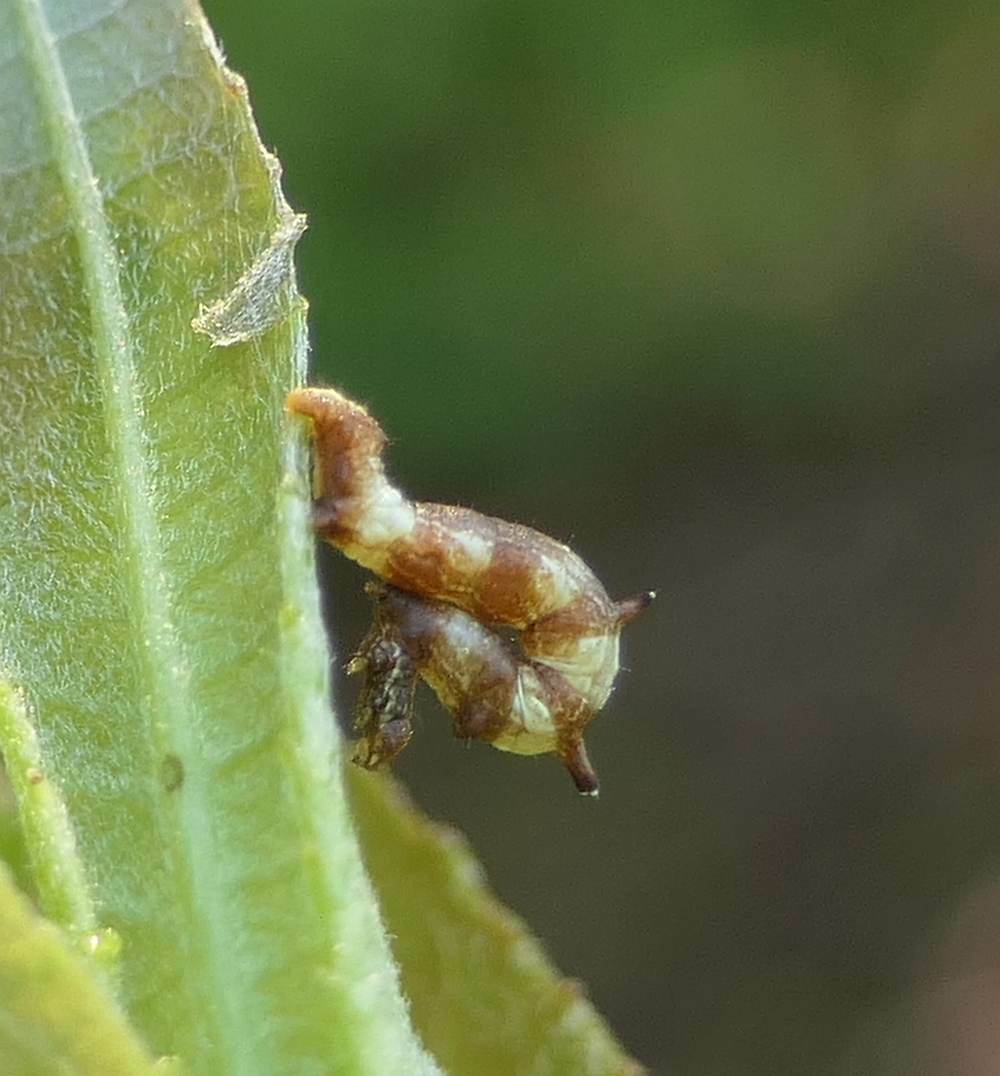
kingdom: Animalia
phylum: Arthropoda
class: Insecta
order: Lepidoptera
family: Geometridae
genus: Nematocampa
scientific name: Nematocampa resistaria
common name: Horned spanworm moth
